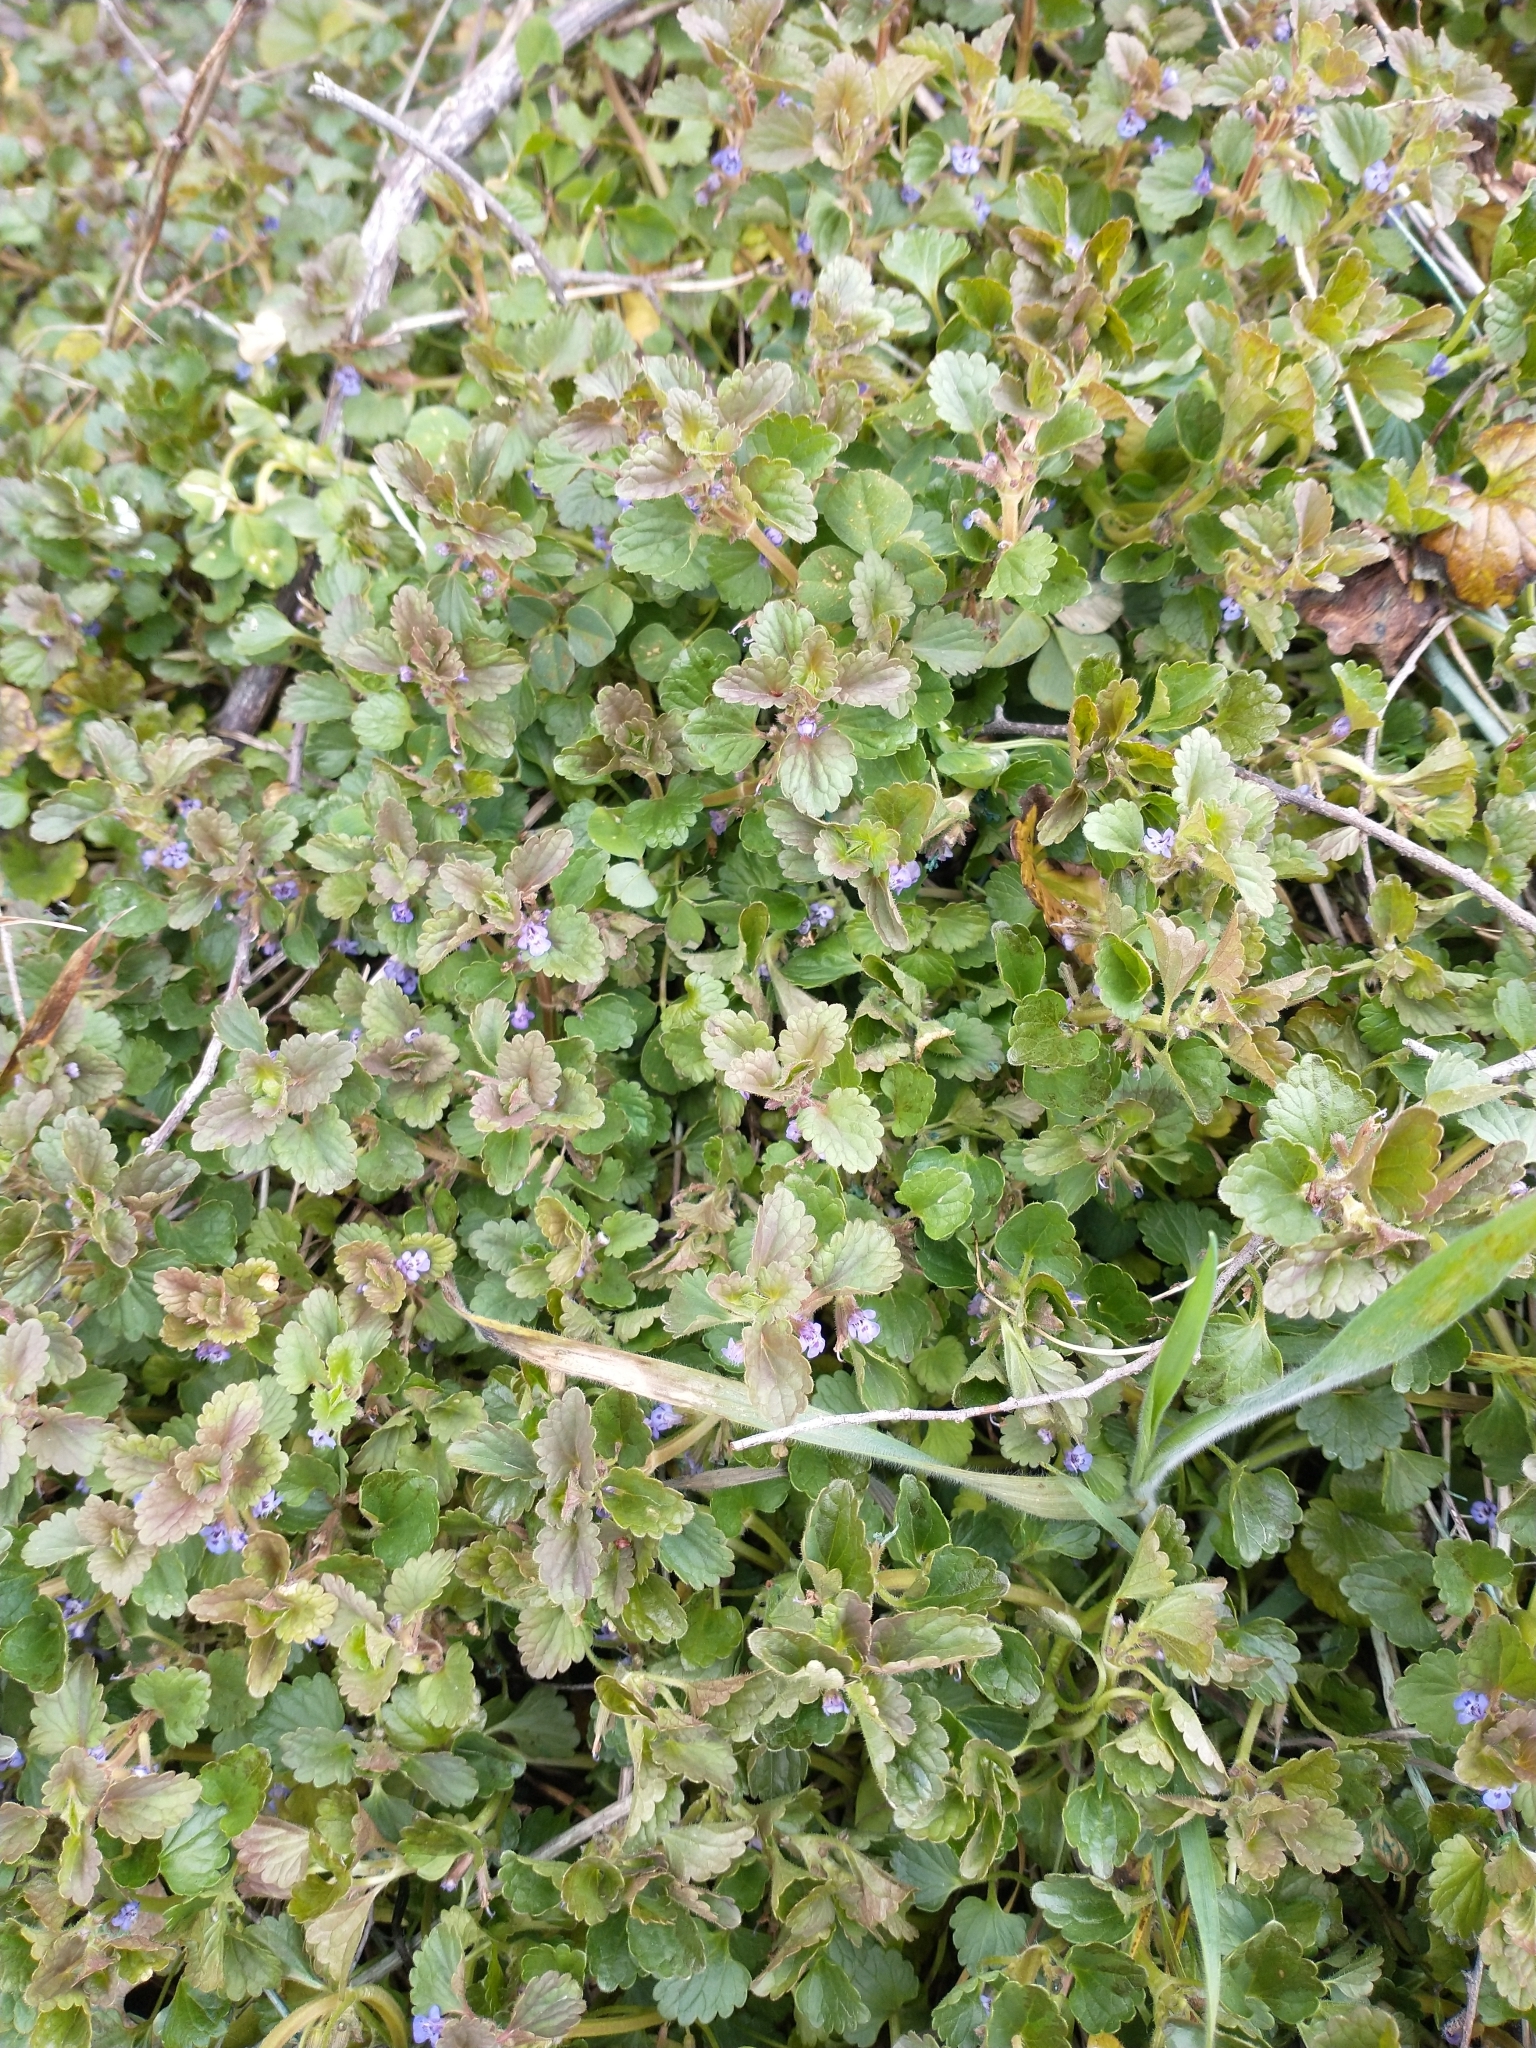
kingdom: Plantae
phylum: Tracheophyta
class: Magnoliopsida
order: Lamiales
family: Lamiaceae
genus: Glechoma
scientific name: Glechoma hederacea
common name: Ground ivy
